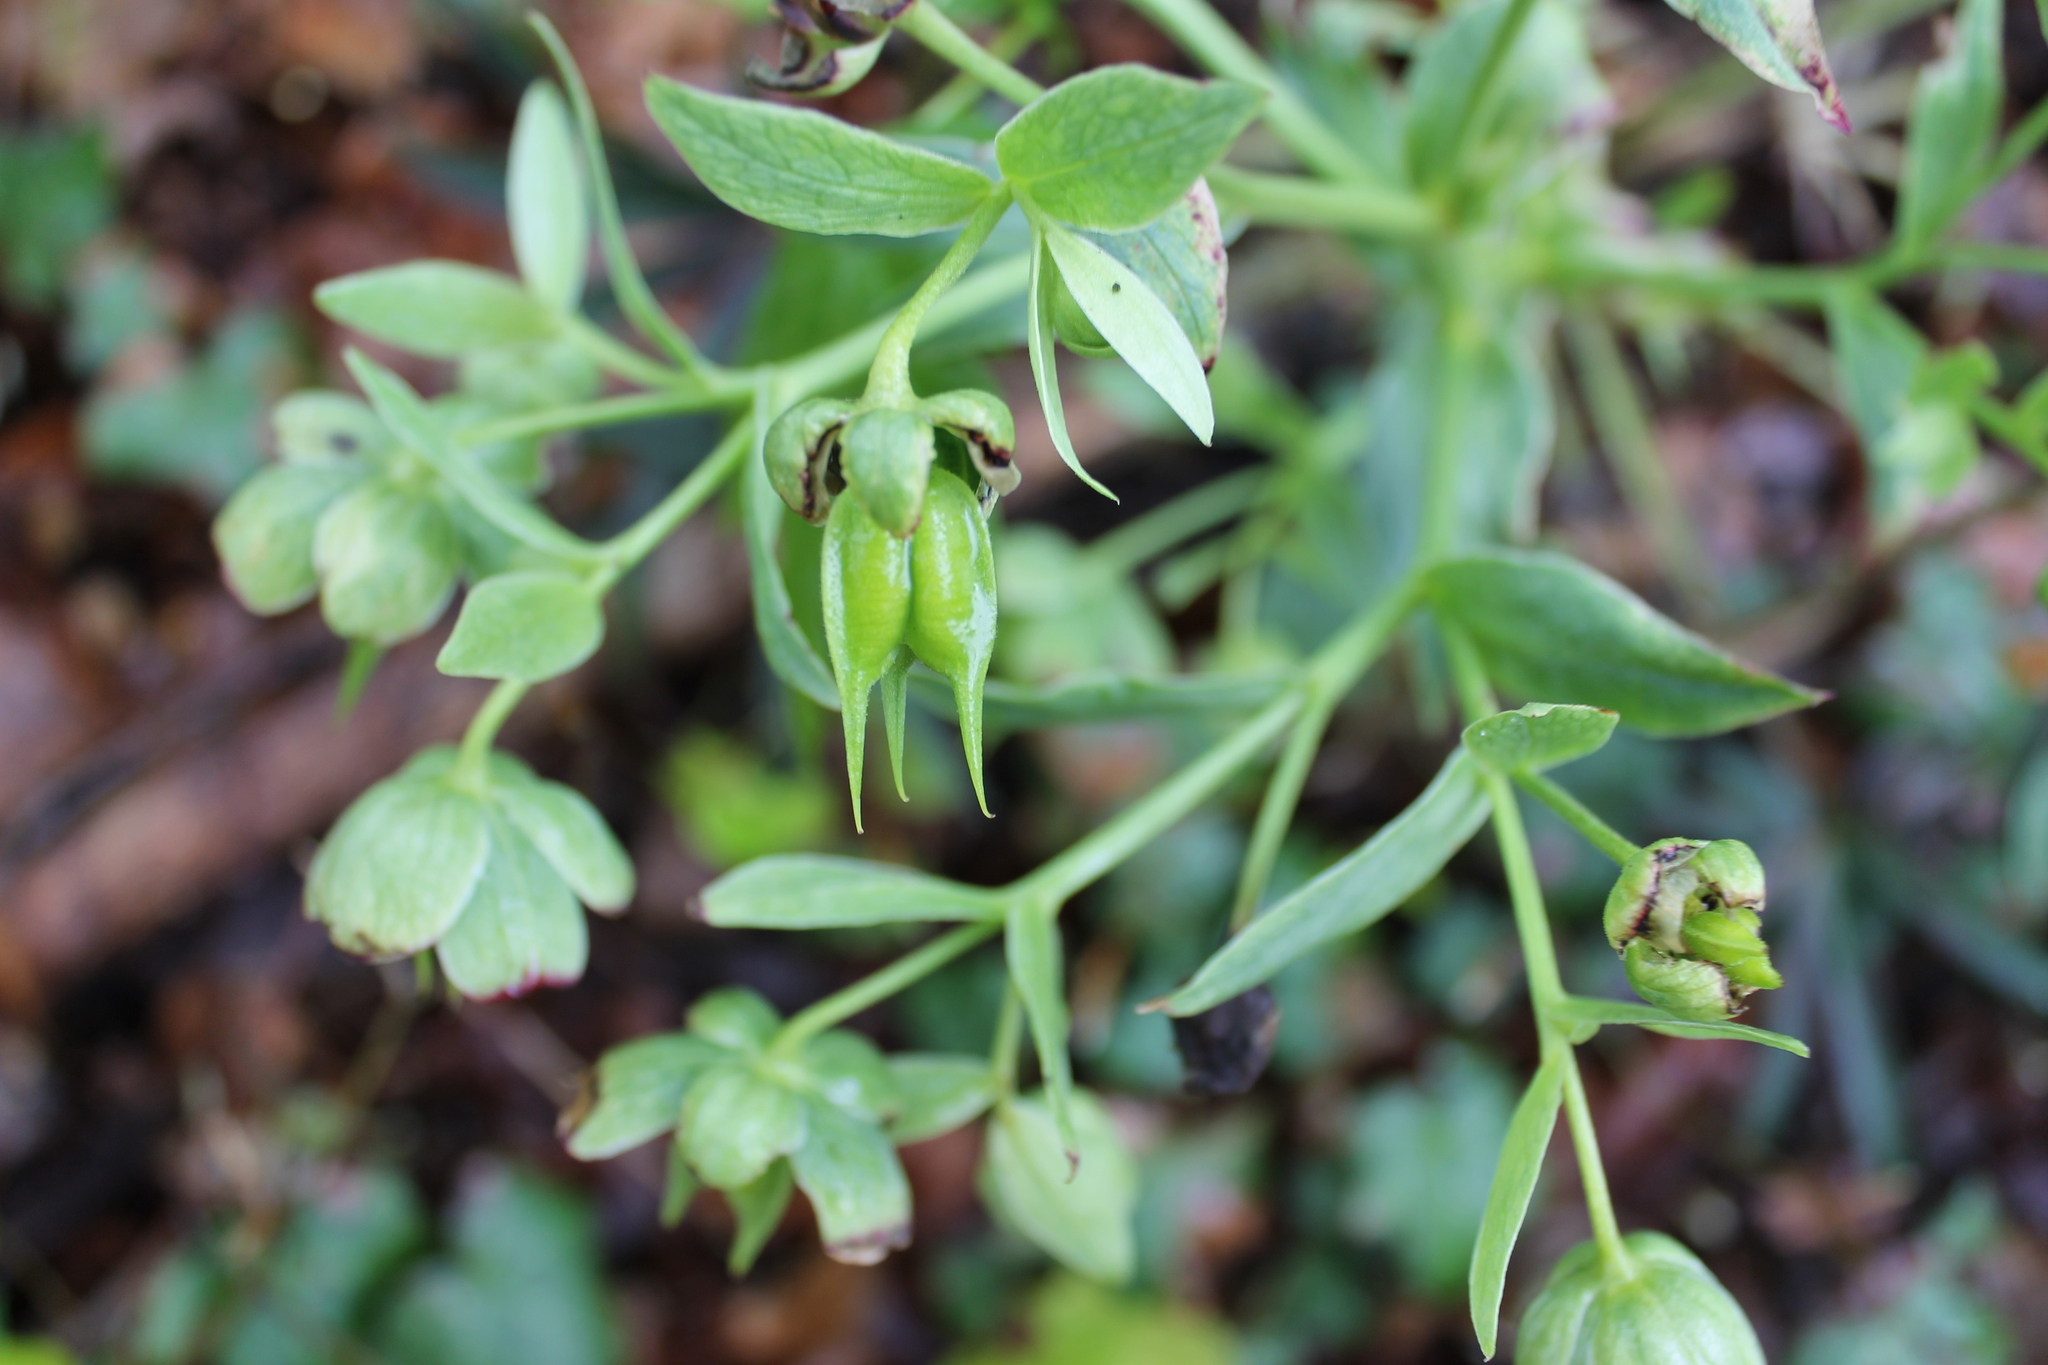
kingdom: Plantae
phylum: Tracheophyta
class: Magnoliopsida
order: Ranunculales
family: Ranunculaceae
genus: Helleborus
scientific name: Helleborus foetidus
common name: Stinking hellebore
